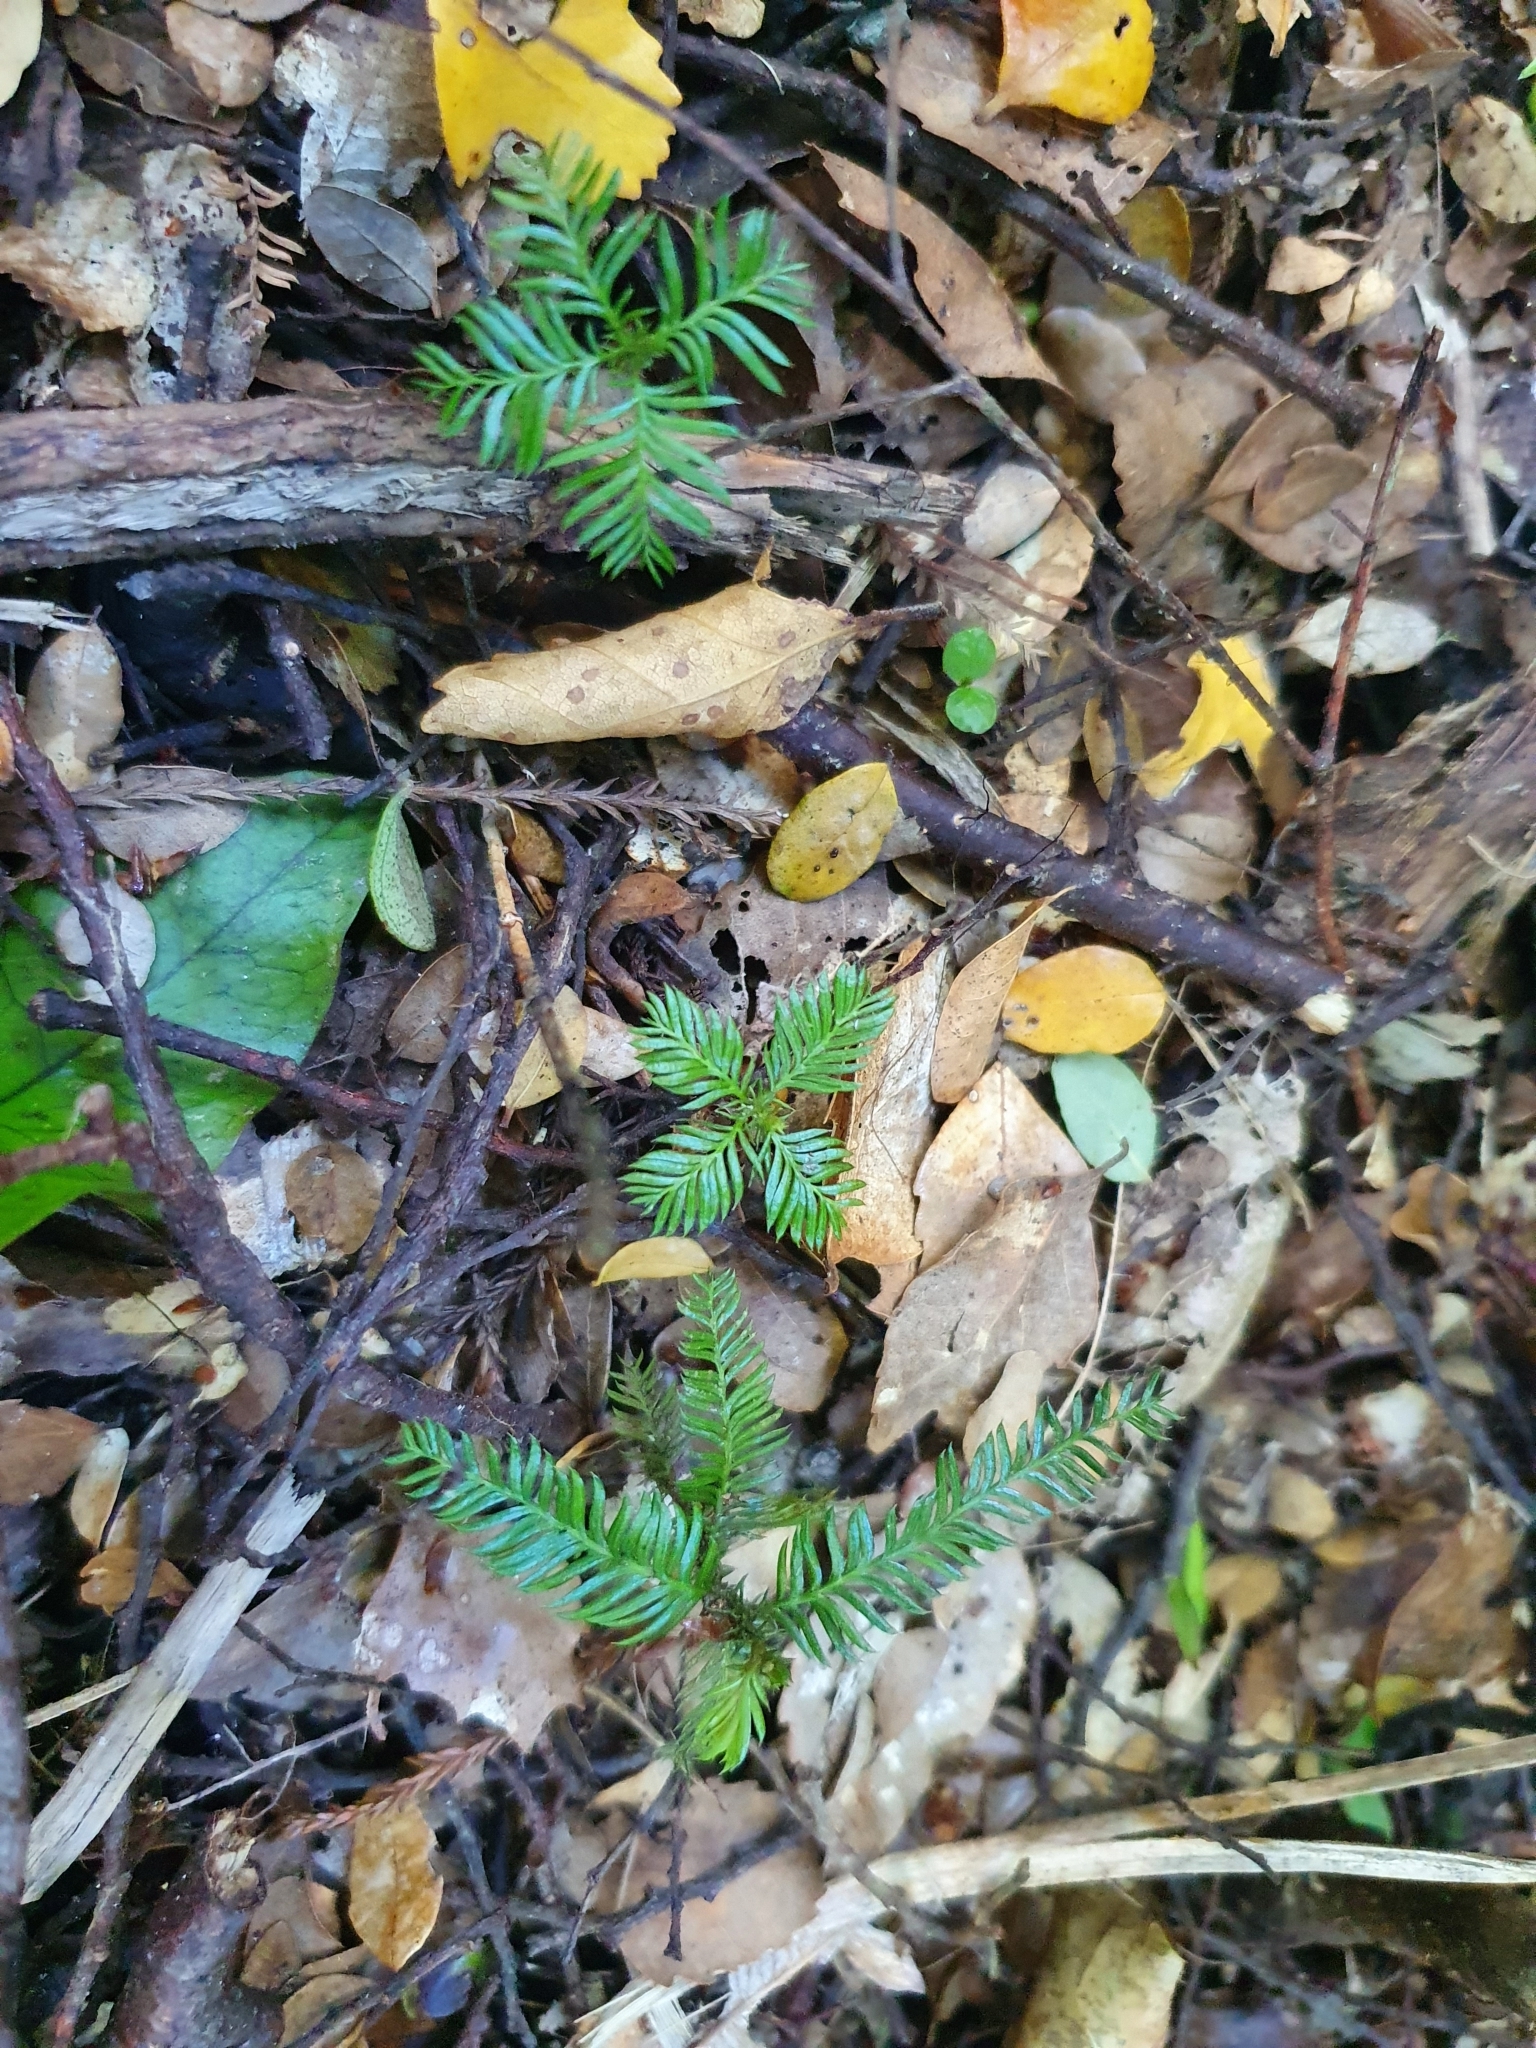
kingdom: Plantae
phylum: Tracheophyta
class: Pinopsida
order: Pinales
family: Podocarpaceae
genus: Dacrycarpus
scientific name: Dacrycarpus dacrydioides
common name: White pine
